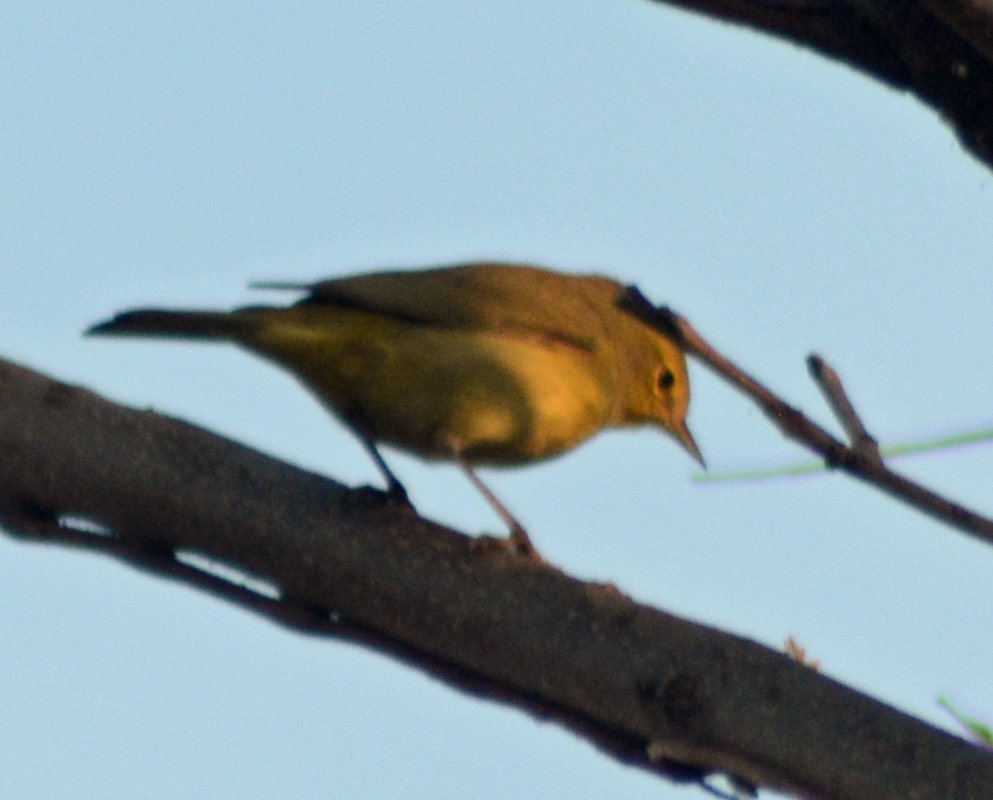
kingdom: Animalia
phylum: Chordata
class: Aves
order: Passeriformes
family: Parulidae
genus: Leiothlypis
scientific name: Leiothlypis celata
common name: Orange-crowned warbler
